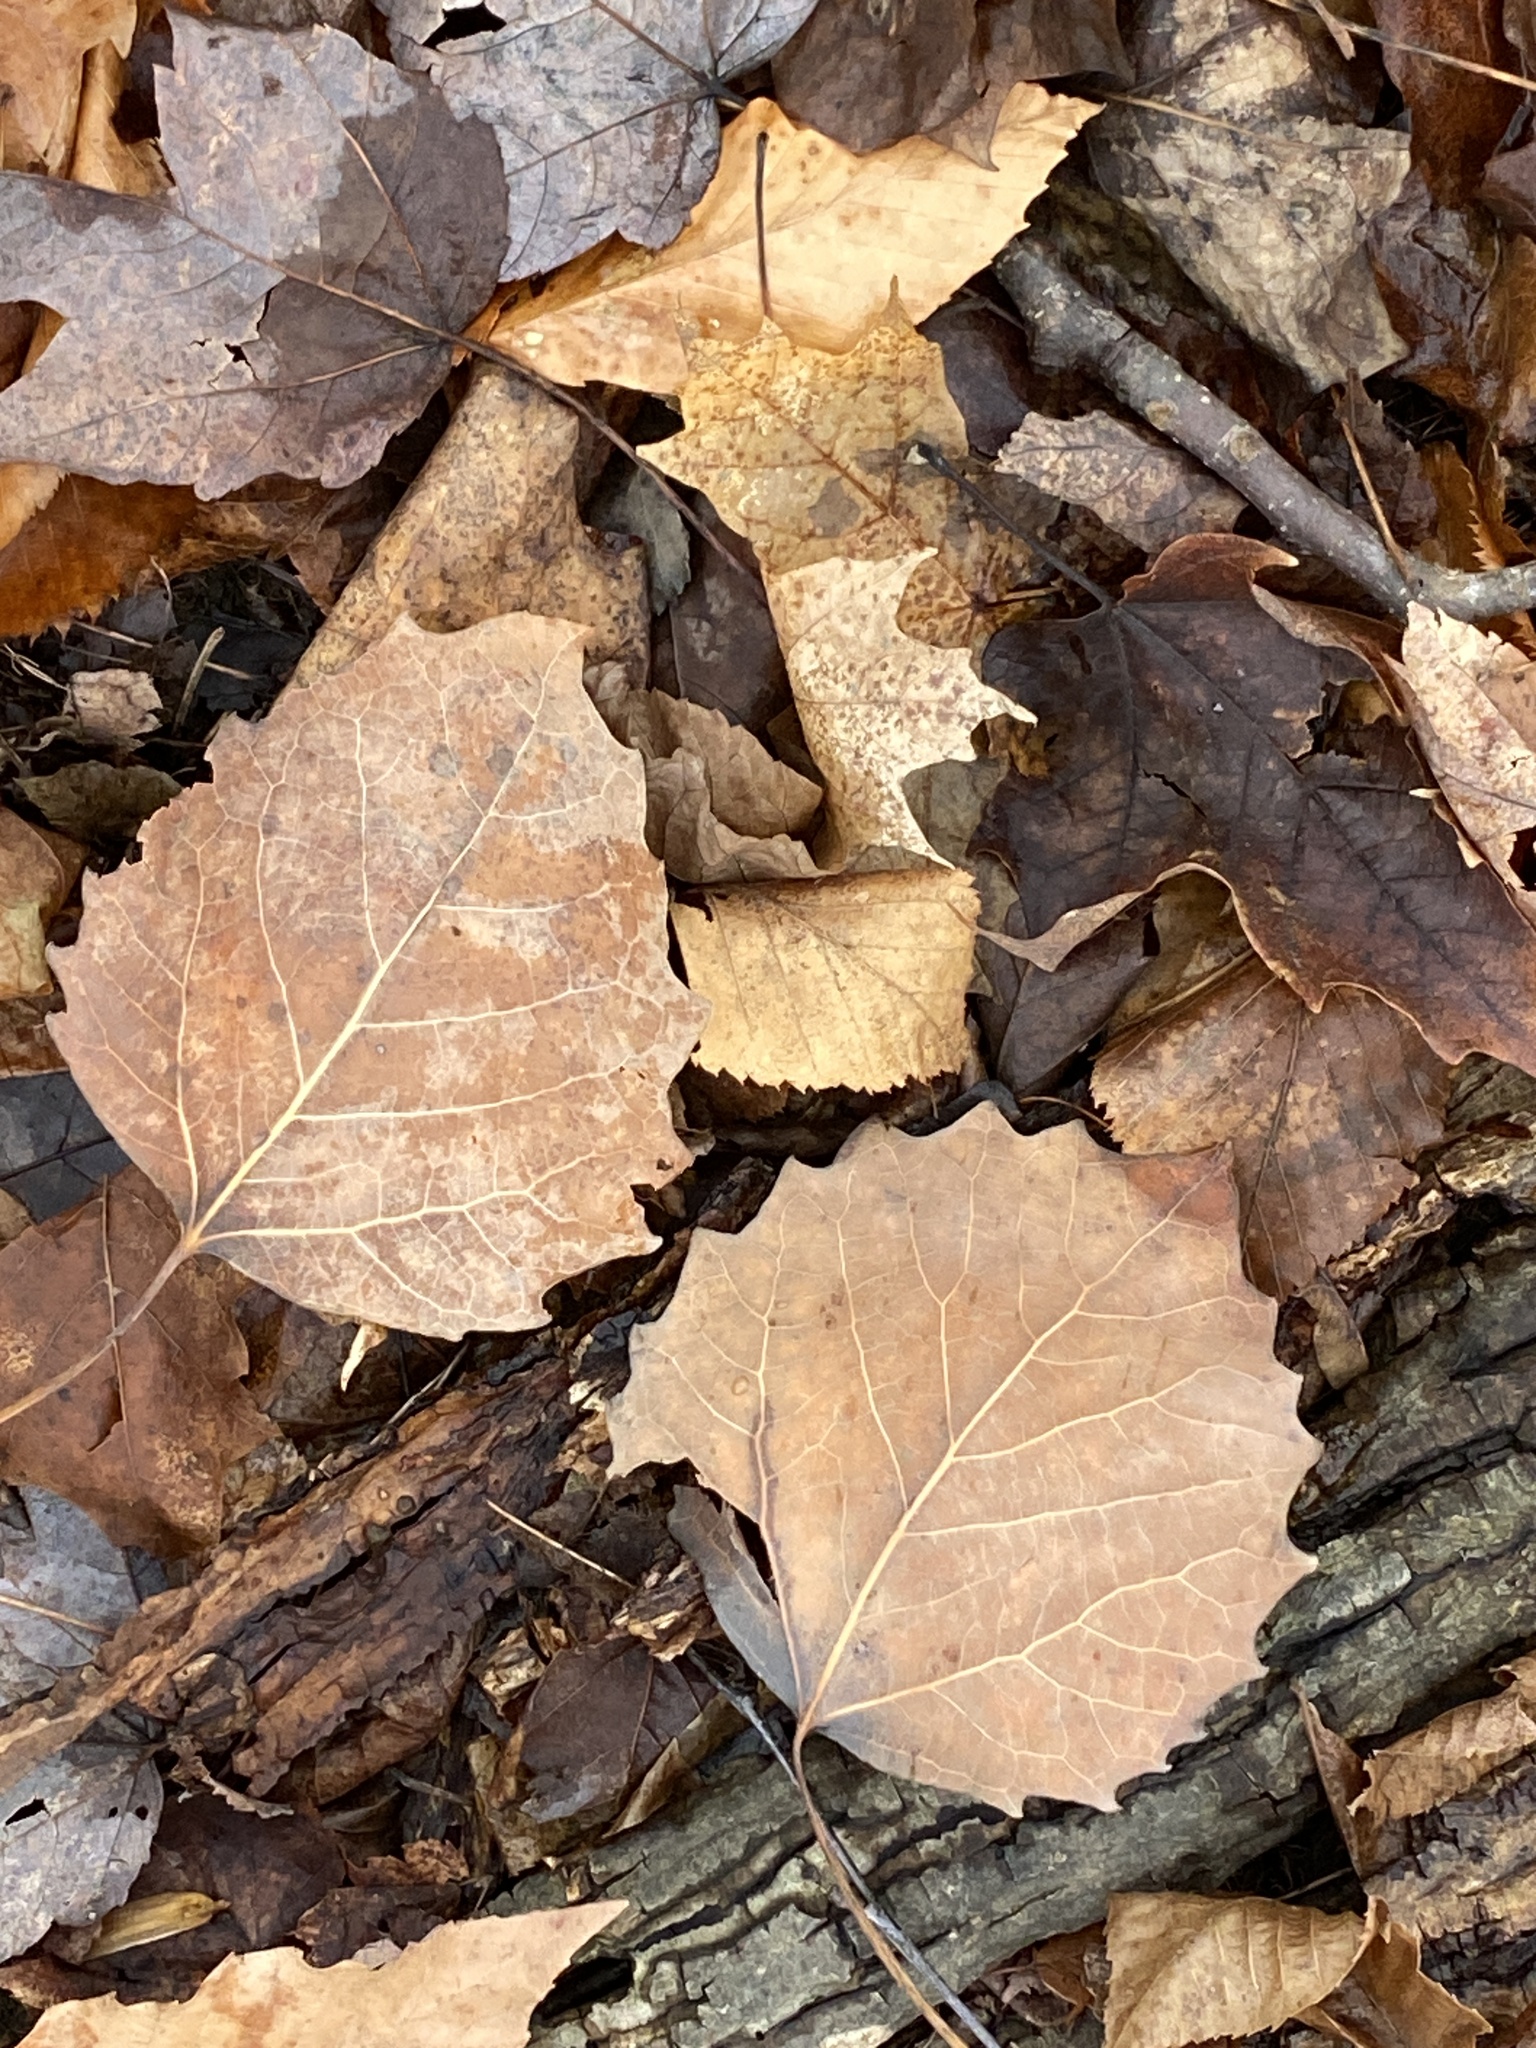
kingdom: Plantae
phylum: Tracheophyta
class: Magnoliopsida
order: Malpighiales
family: Salicaceae
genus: Populus
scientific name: Populus grandidentata
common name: Bigtooth aspen
